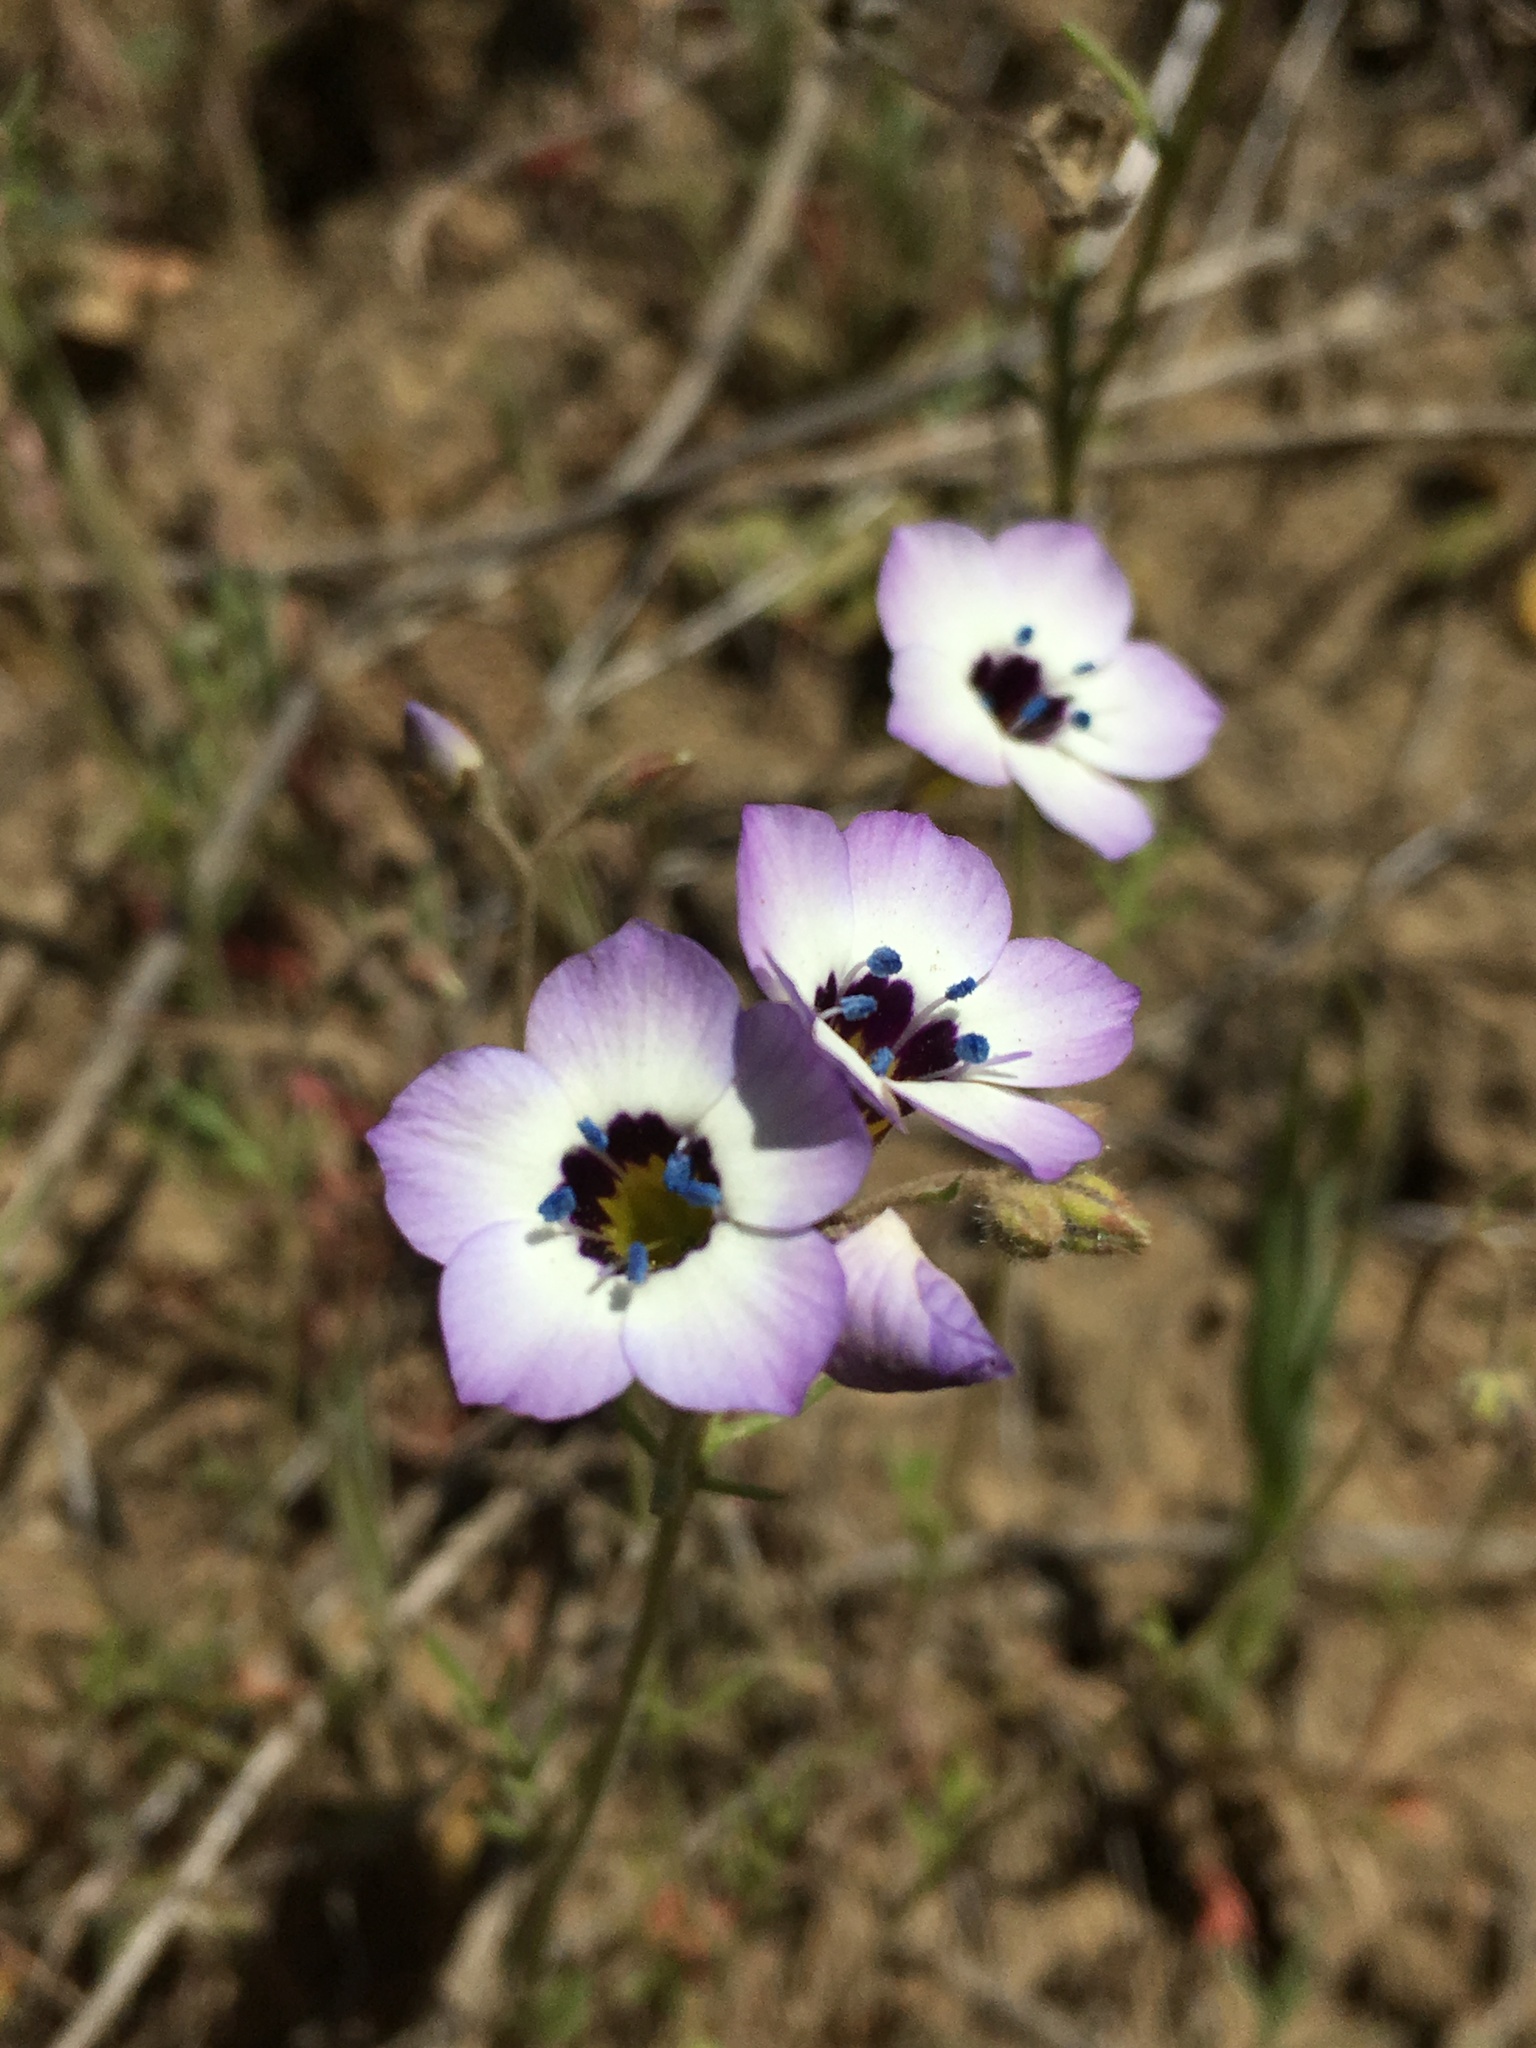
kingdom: Plantae
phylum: Tracheophyta
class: Magnoliopsida
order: Ericales
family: Polemoniaceae
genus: Gilia
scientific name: Gilia tricolor
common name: Bird's-eyes
